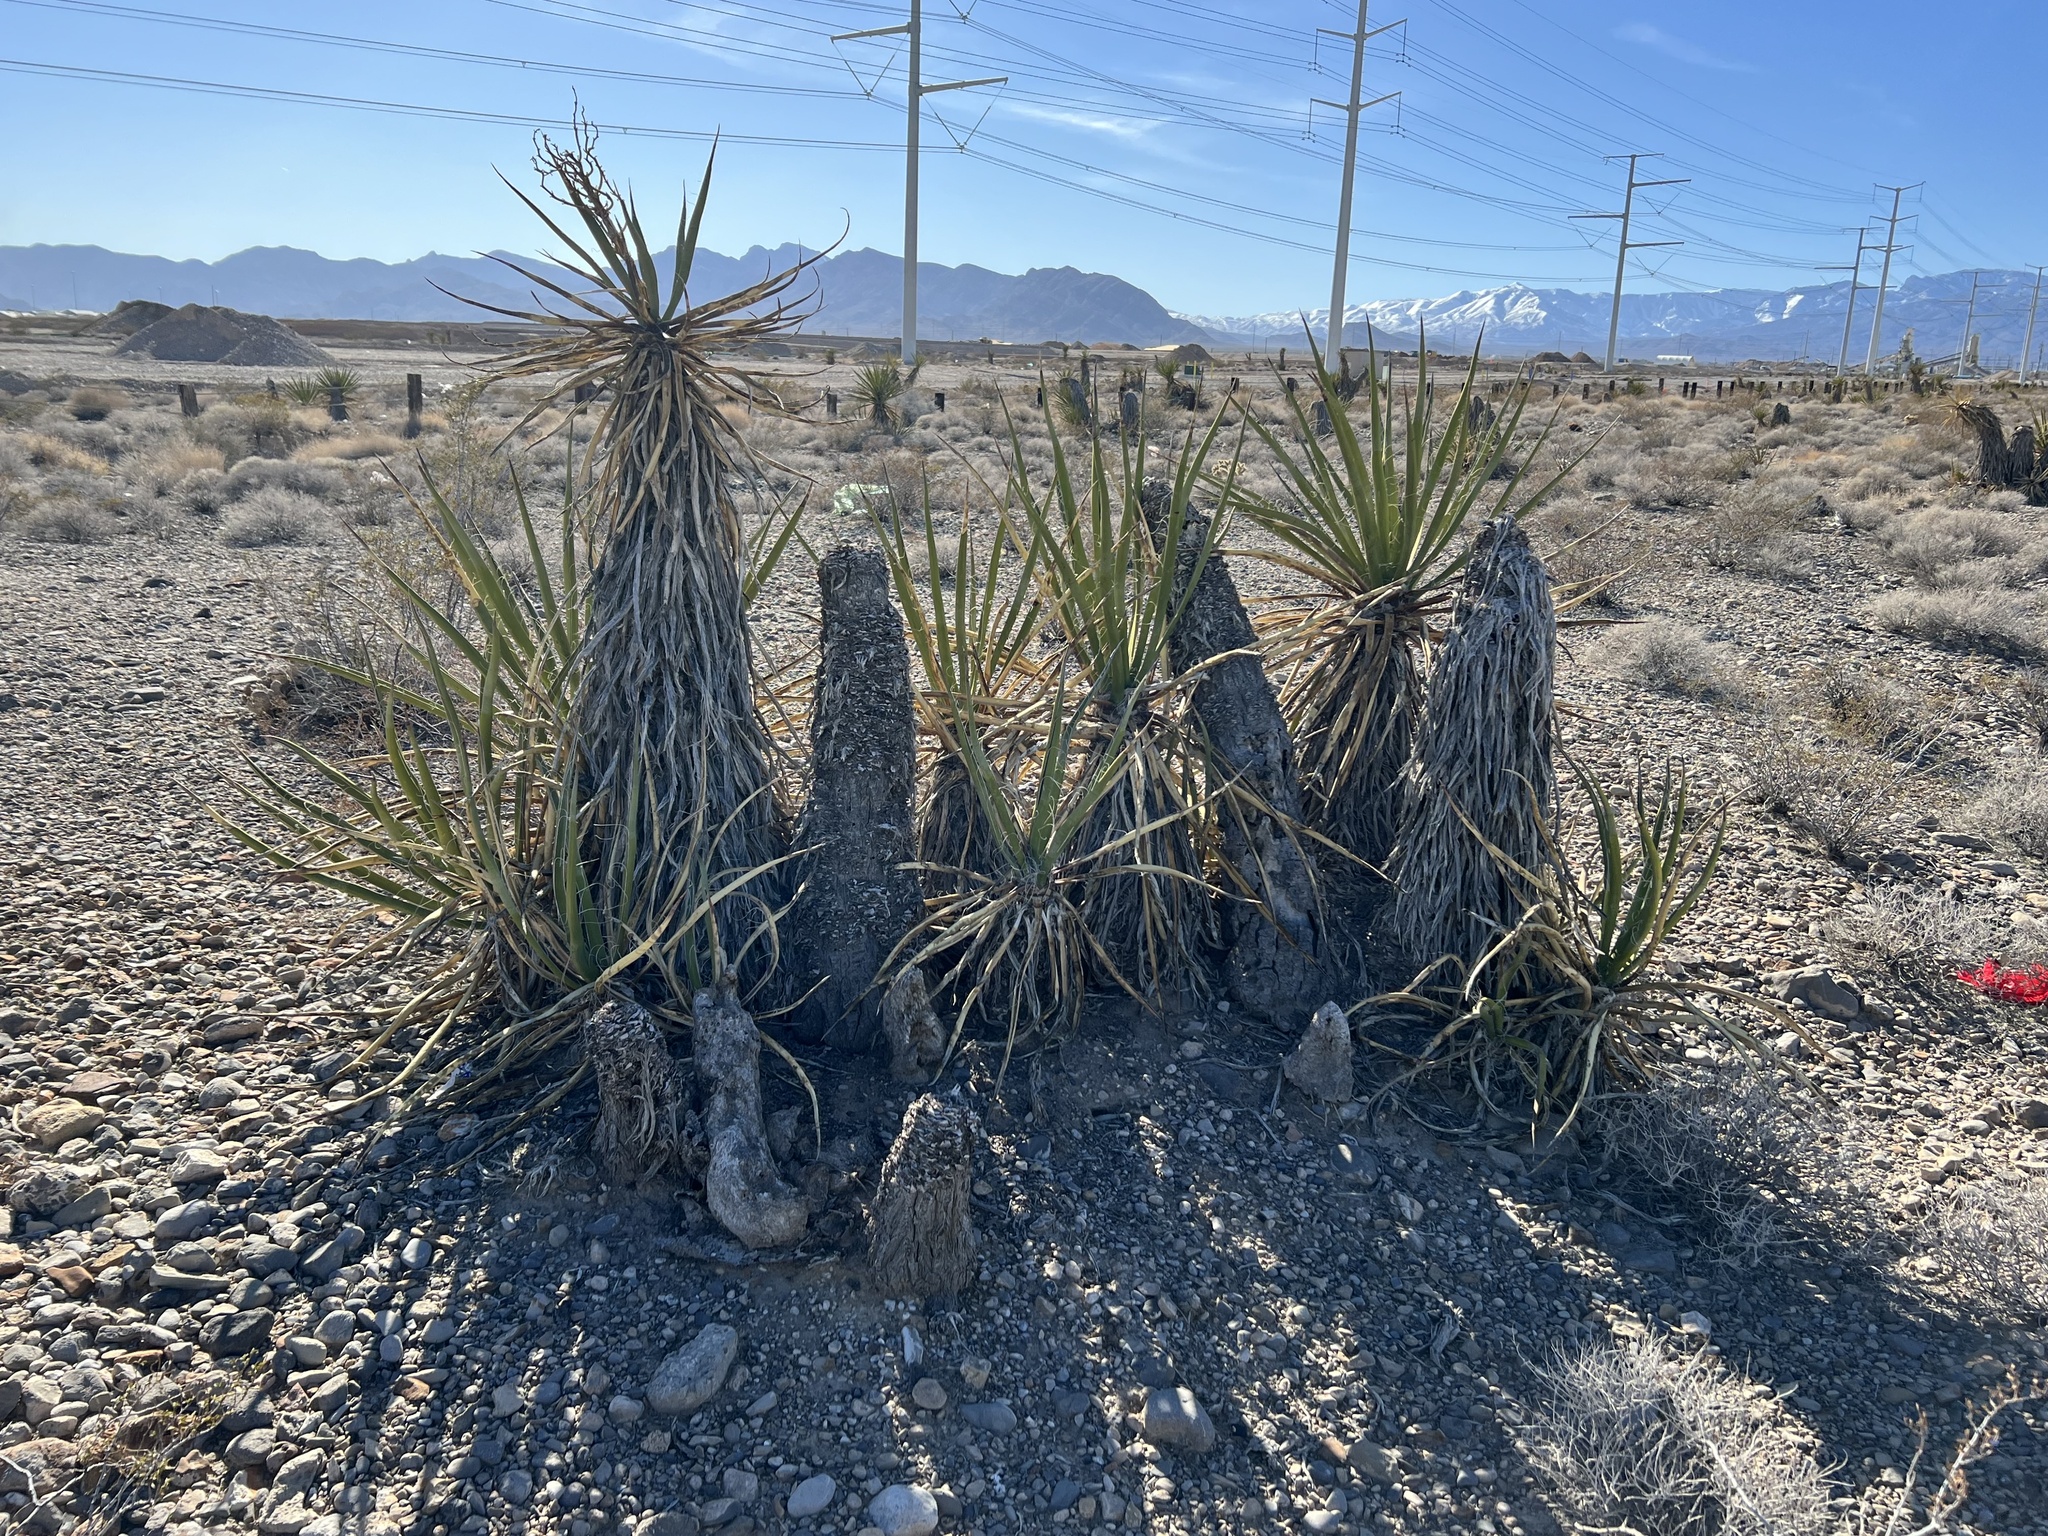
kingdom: Plantae
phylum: Tracheophyta
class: Liliopsida
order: Asparagales
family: Asparagaceae
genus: Yucca
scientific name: Yucca schidigera
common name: Mojave yucca
